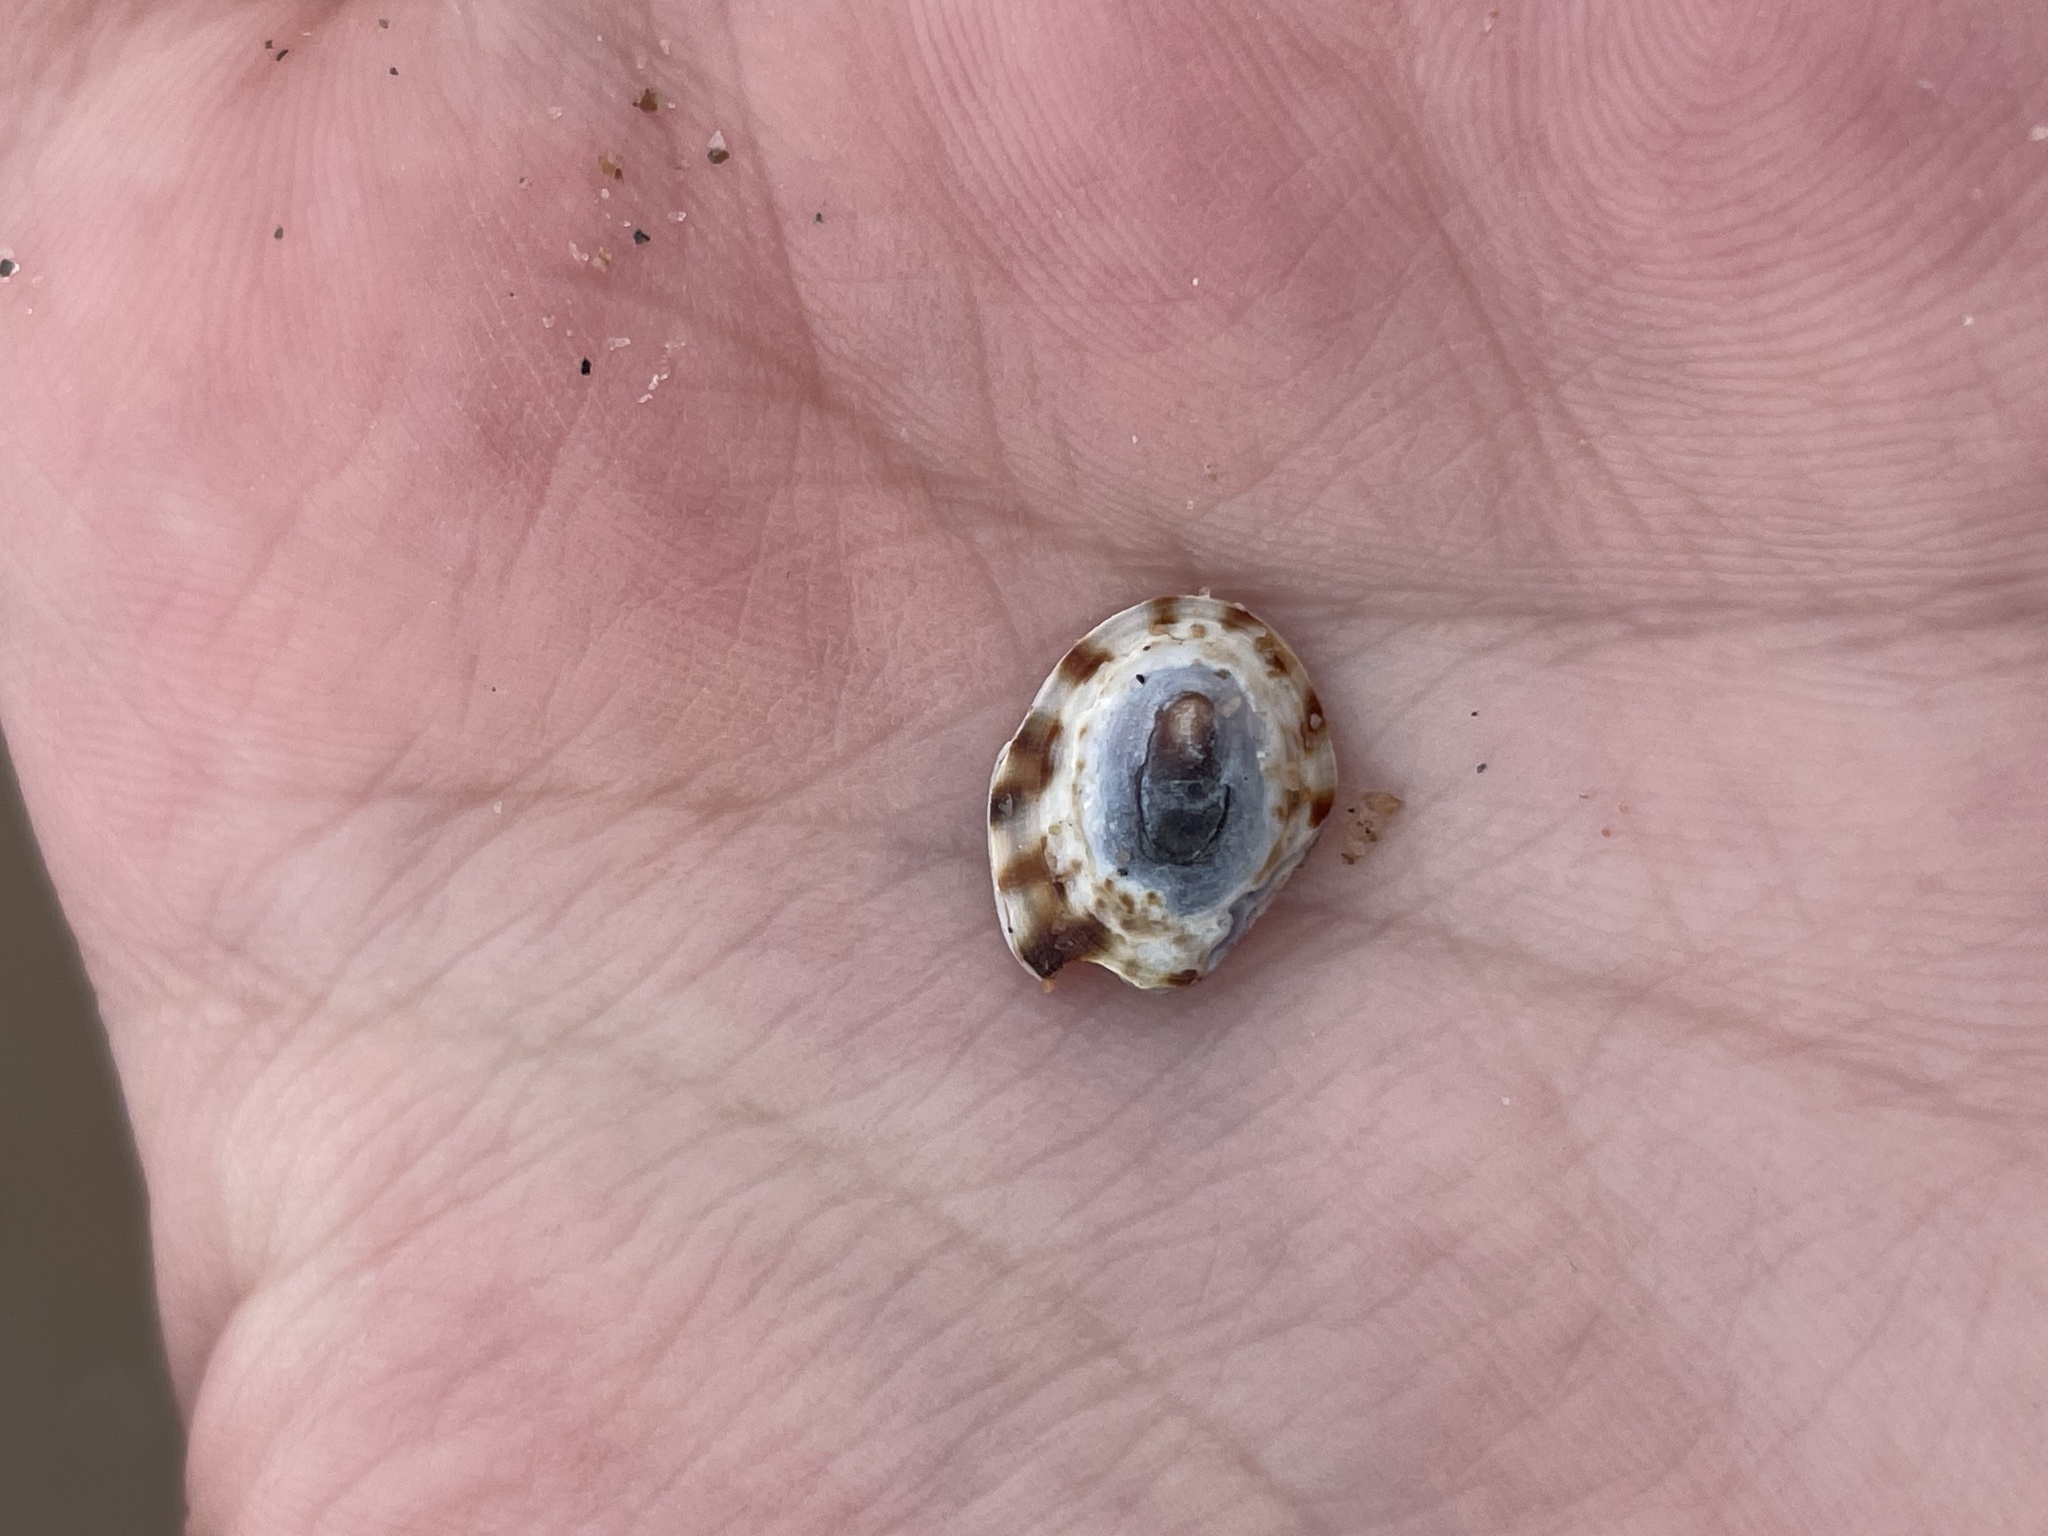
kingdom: Animalia
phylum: Mollusca
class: Gastropoda
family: Lottiidae
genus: Testudinalia
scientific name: Testudinalia testudinalis
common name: Common tortoiseshell limpet
